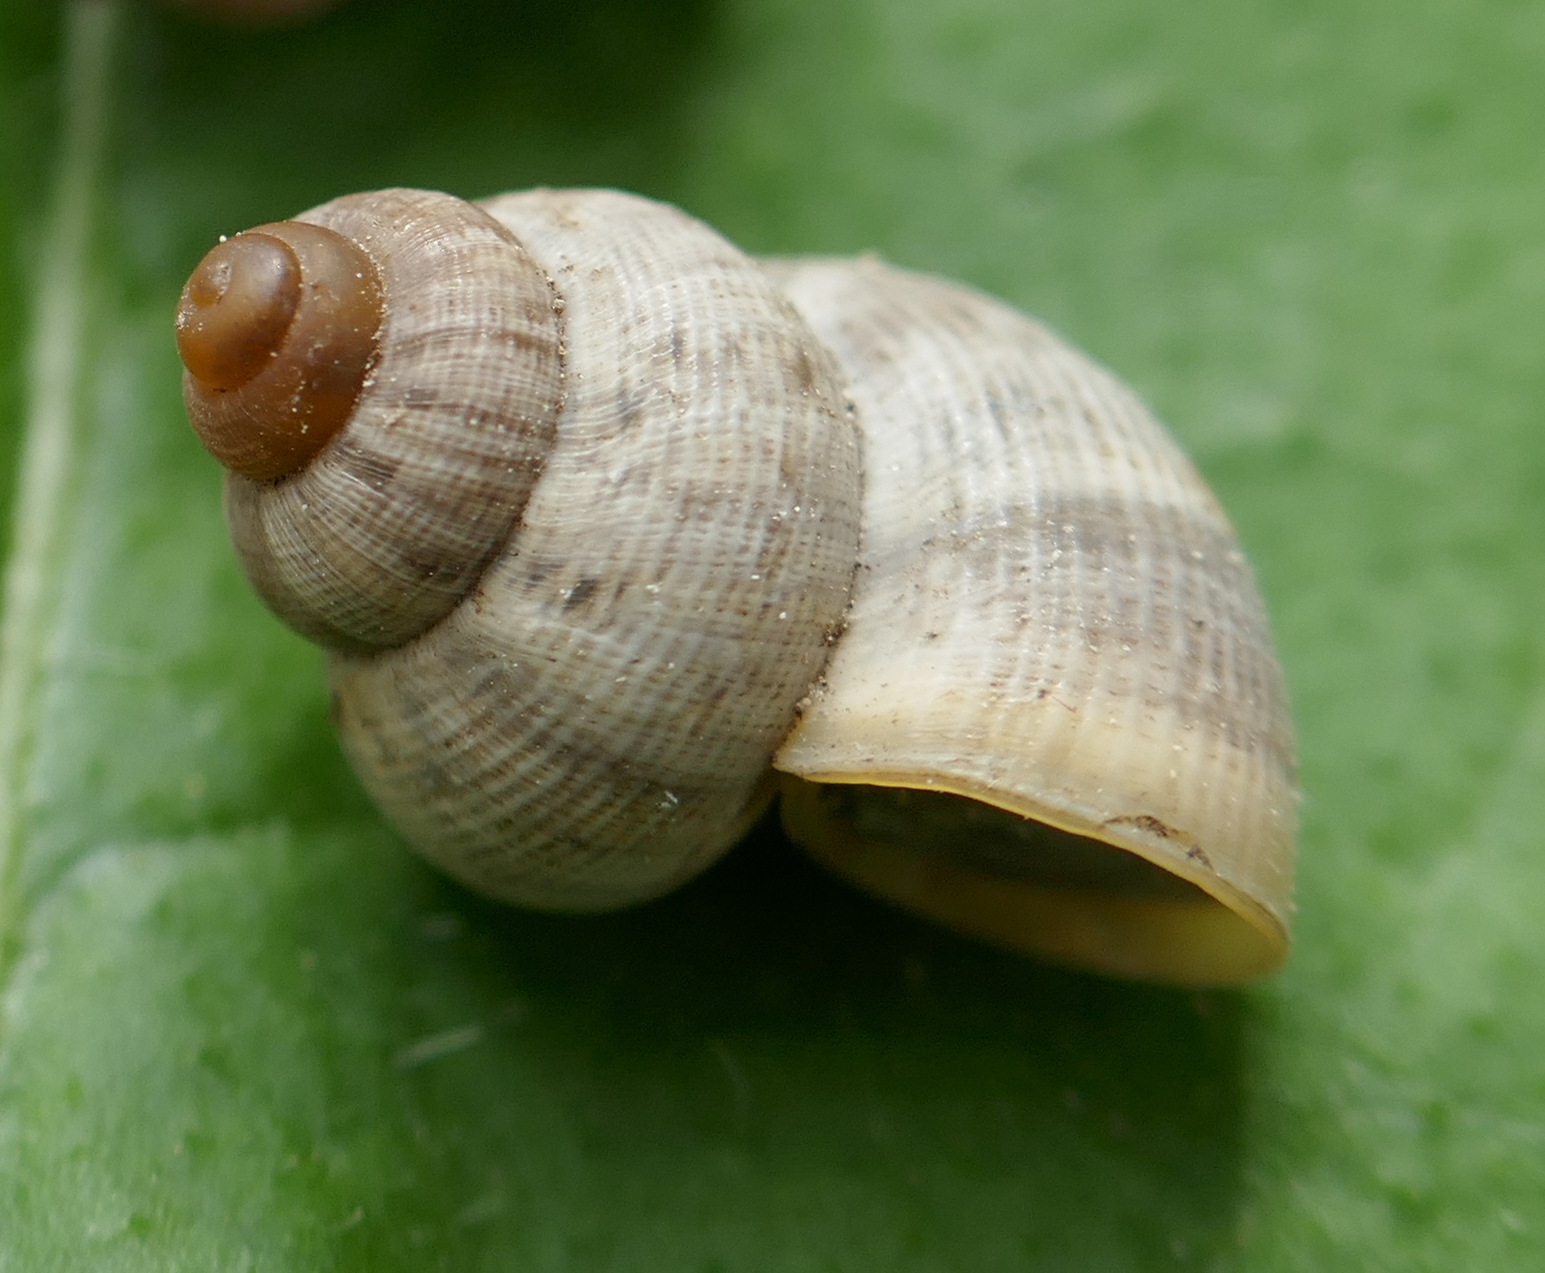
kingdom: Animalia
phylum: Mollusca
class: Gastropoda
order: Littorinimorpha
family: Pomatiidae
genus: Pomatias
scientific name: Pomatias elegans
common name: Red-mouthed snail
